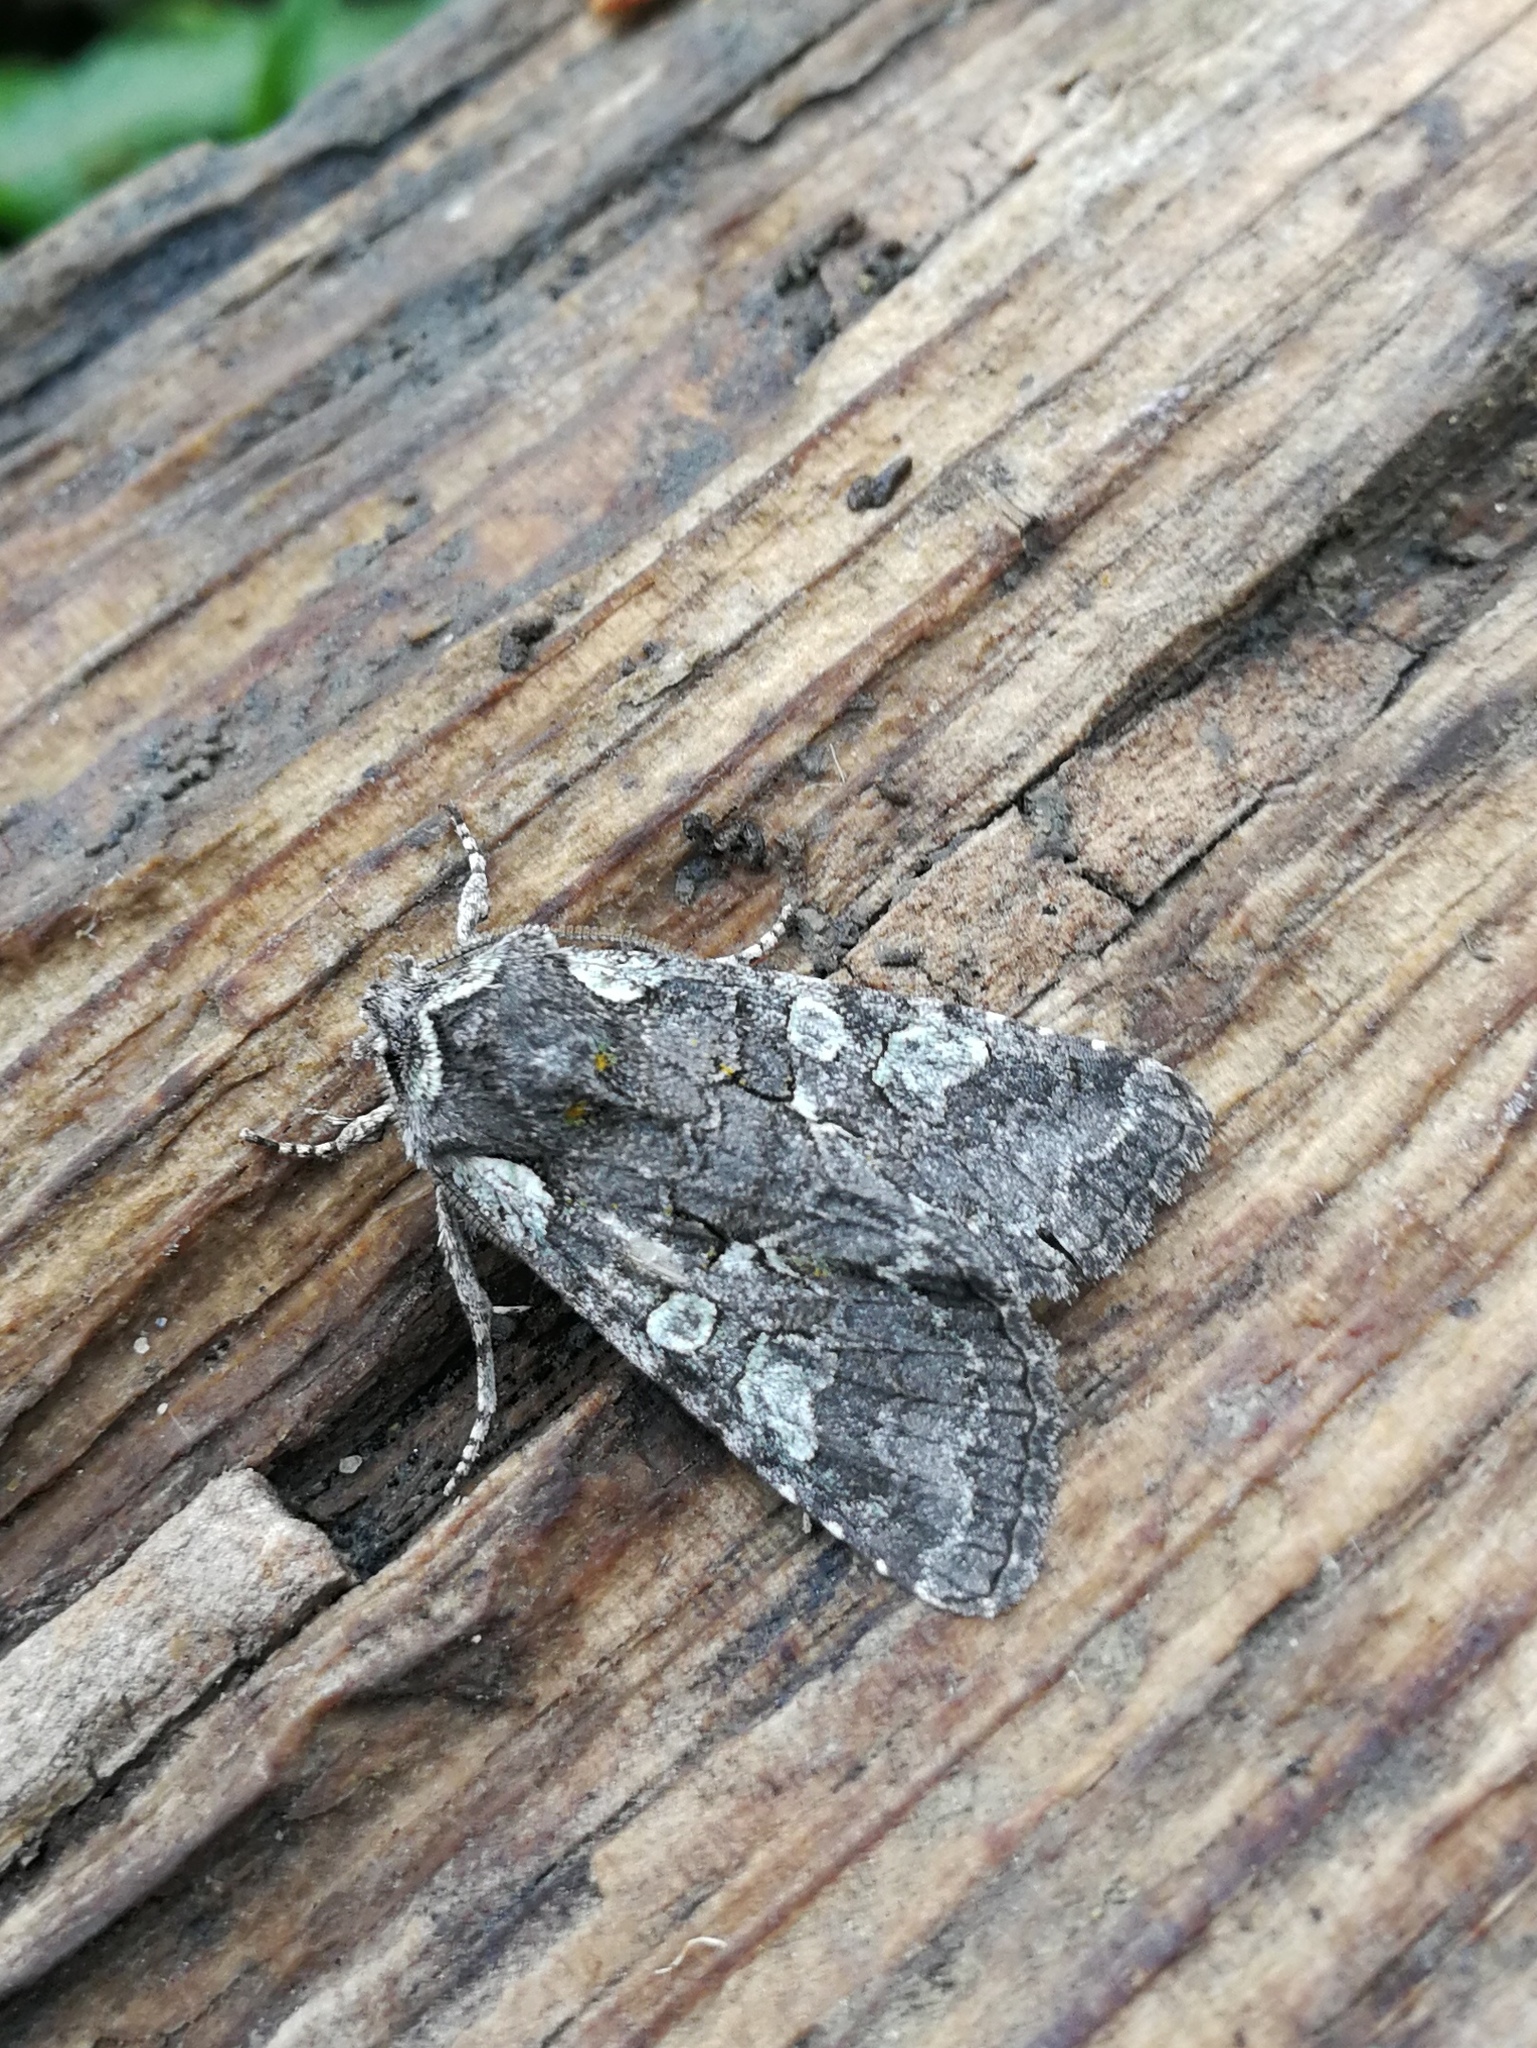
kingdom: Animalia
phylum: Arthropoda
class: Insecta
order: Lepidoptera
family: Noctuidae
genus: Dichonia
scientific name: Dichonia aeruginea
